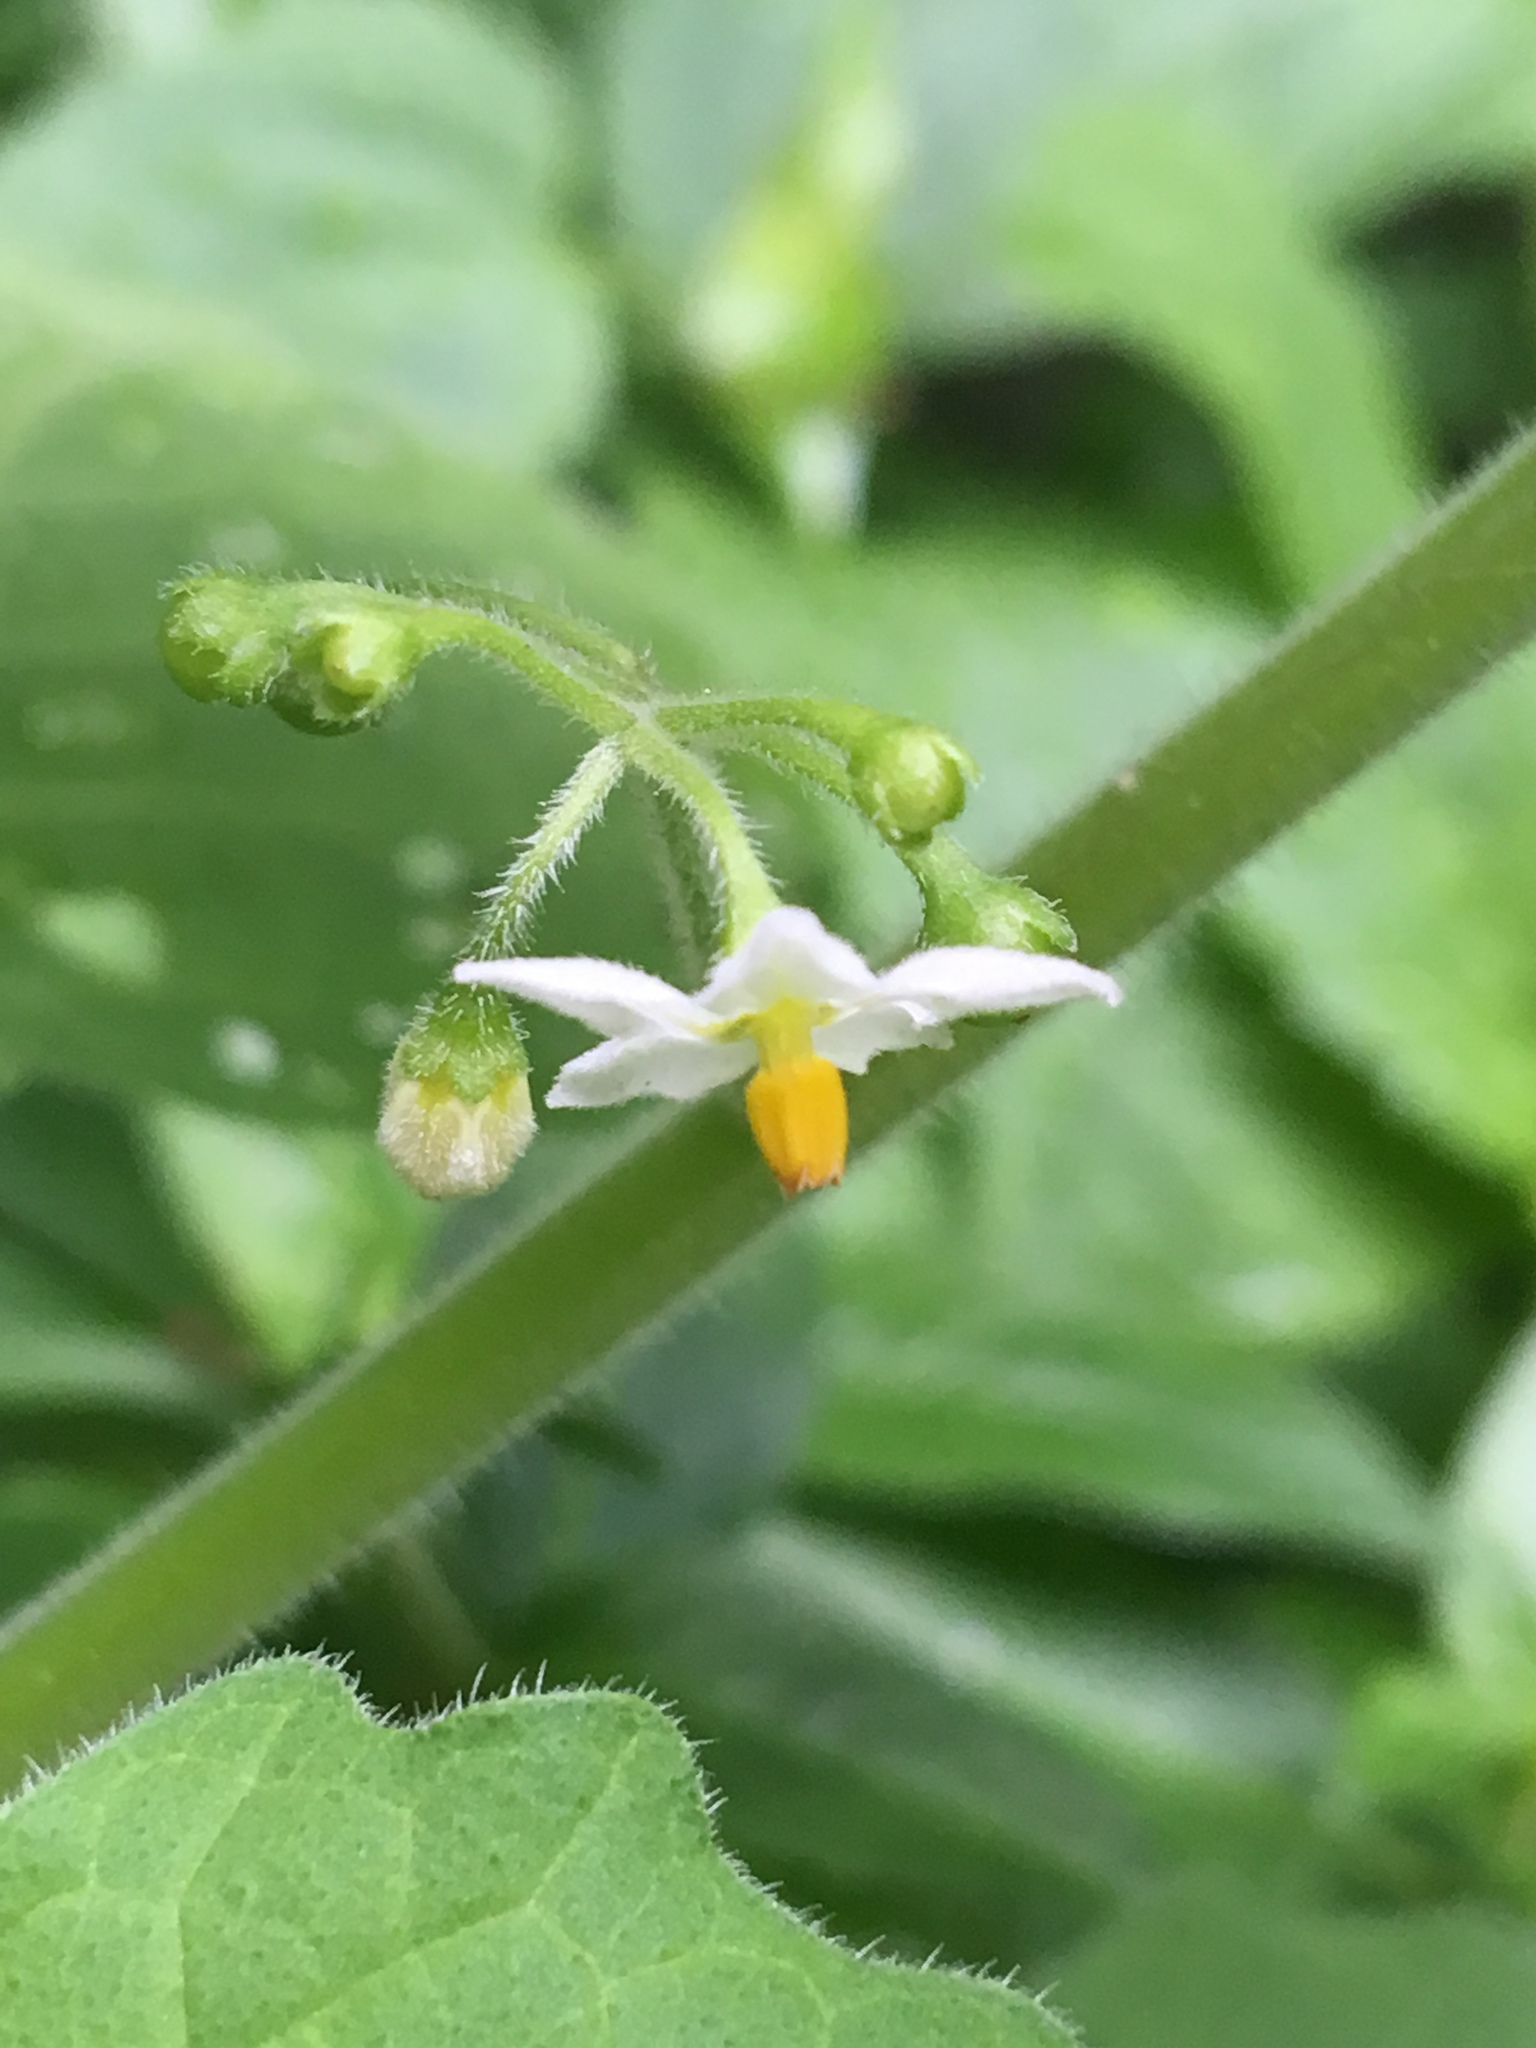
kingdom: Plantae
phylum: Tracheophyta
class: Magnoliopsida
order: Solanales
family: Solanaceae
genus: Solanum
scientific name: Solanum nigrum
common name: Black nightshade
